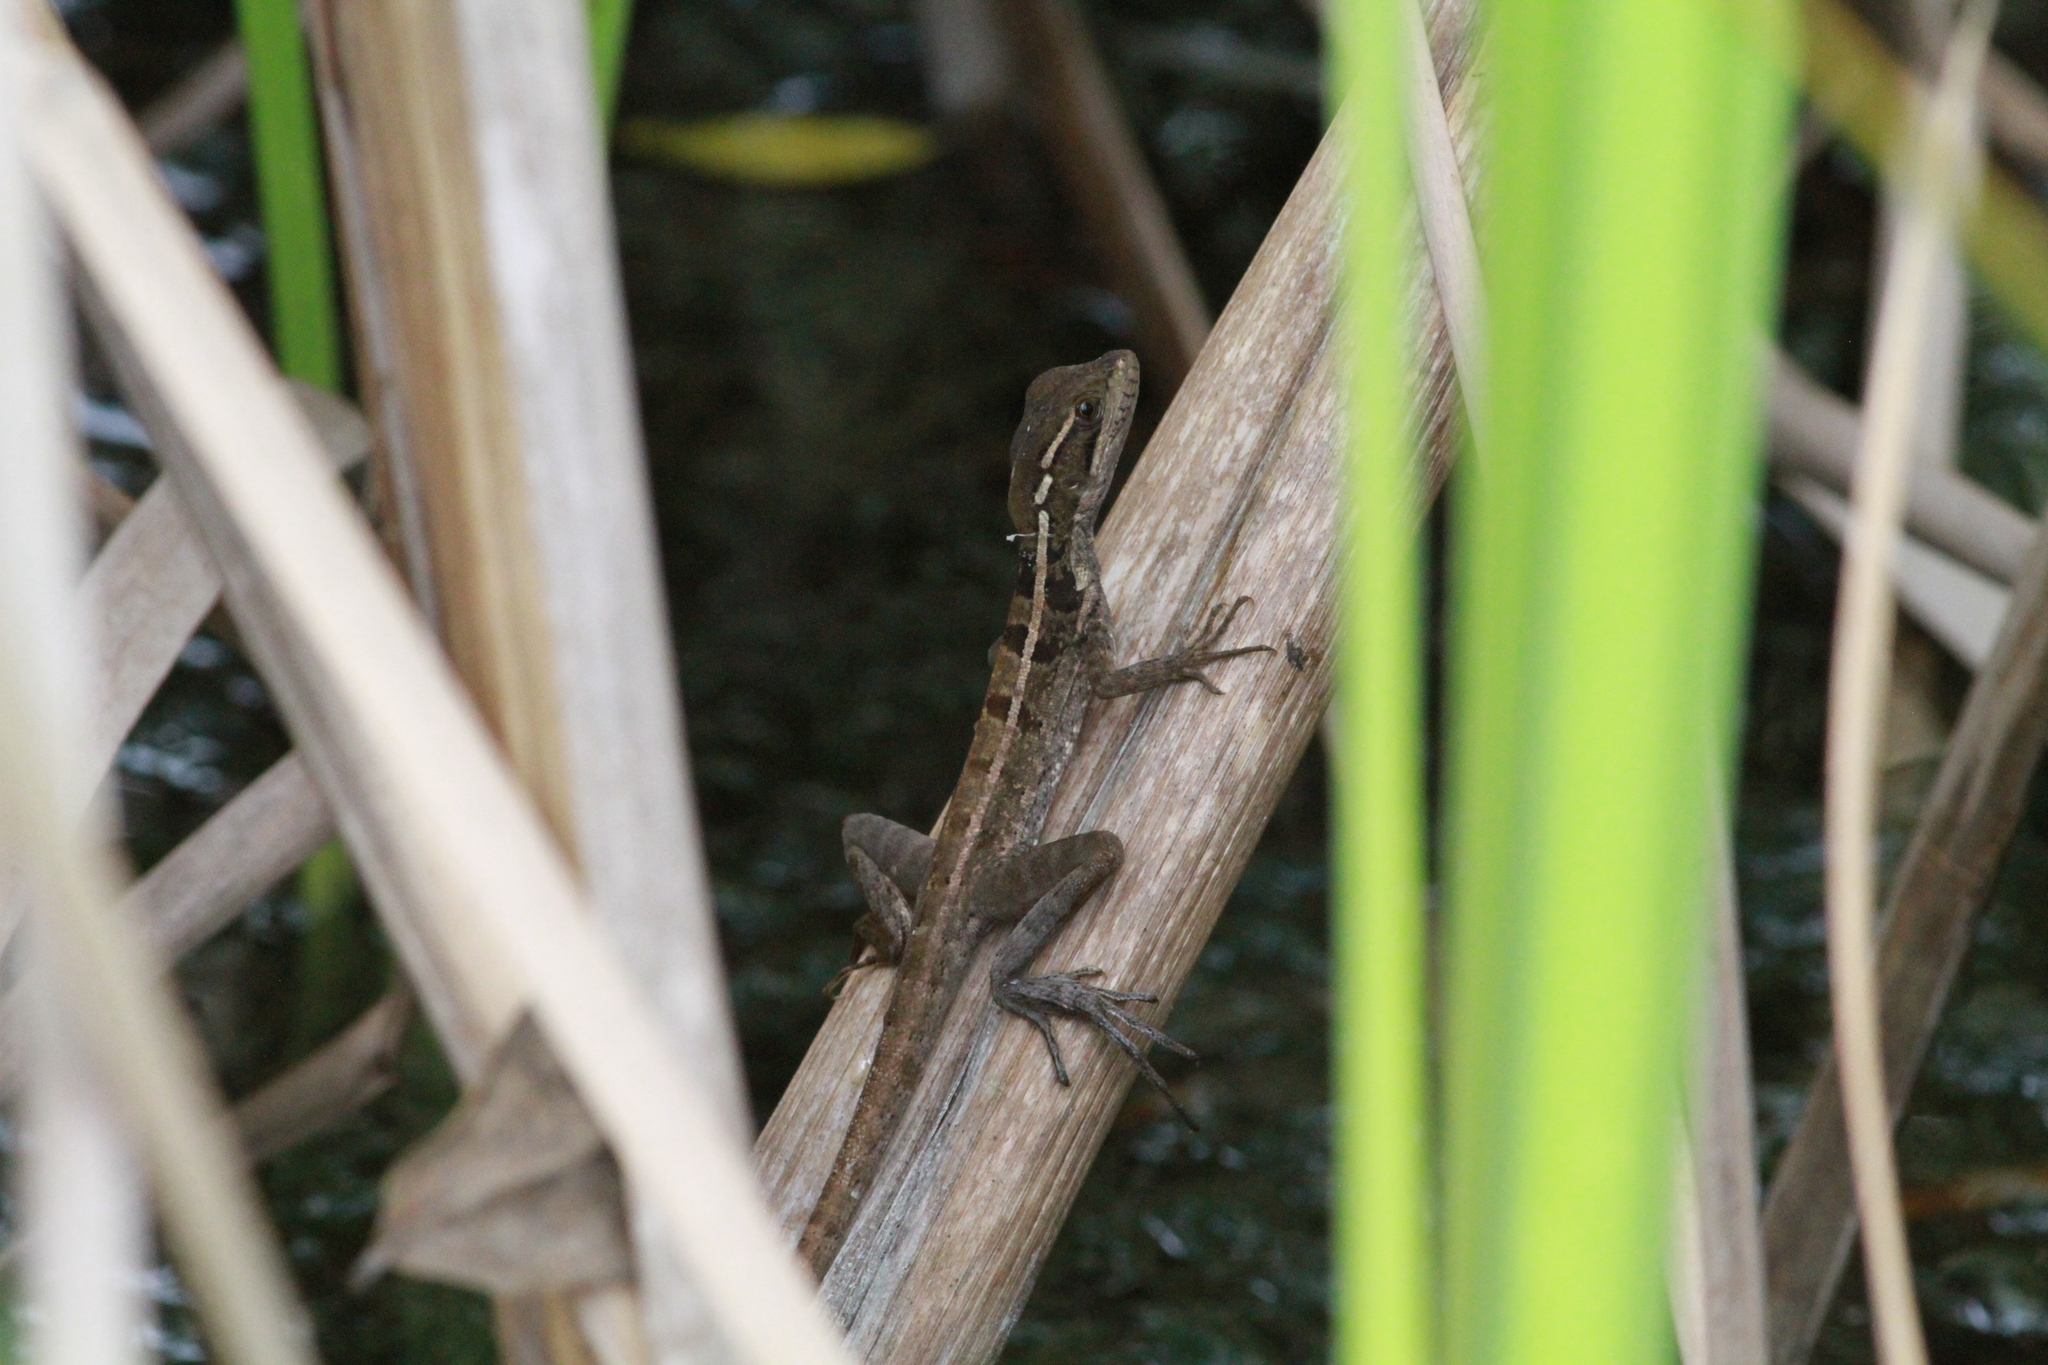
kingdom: Animalia
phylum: Chordata
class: Squamata
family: Corytophanidae
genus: Basiliscus
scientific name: Basiliscus vittatus
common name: Brown basilisk
